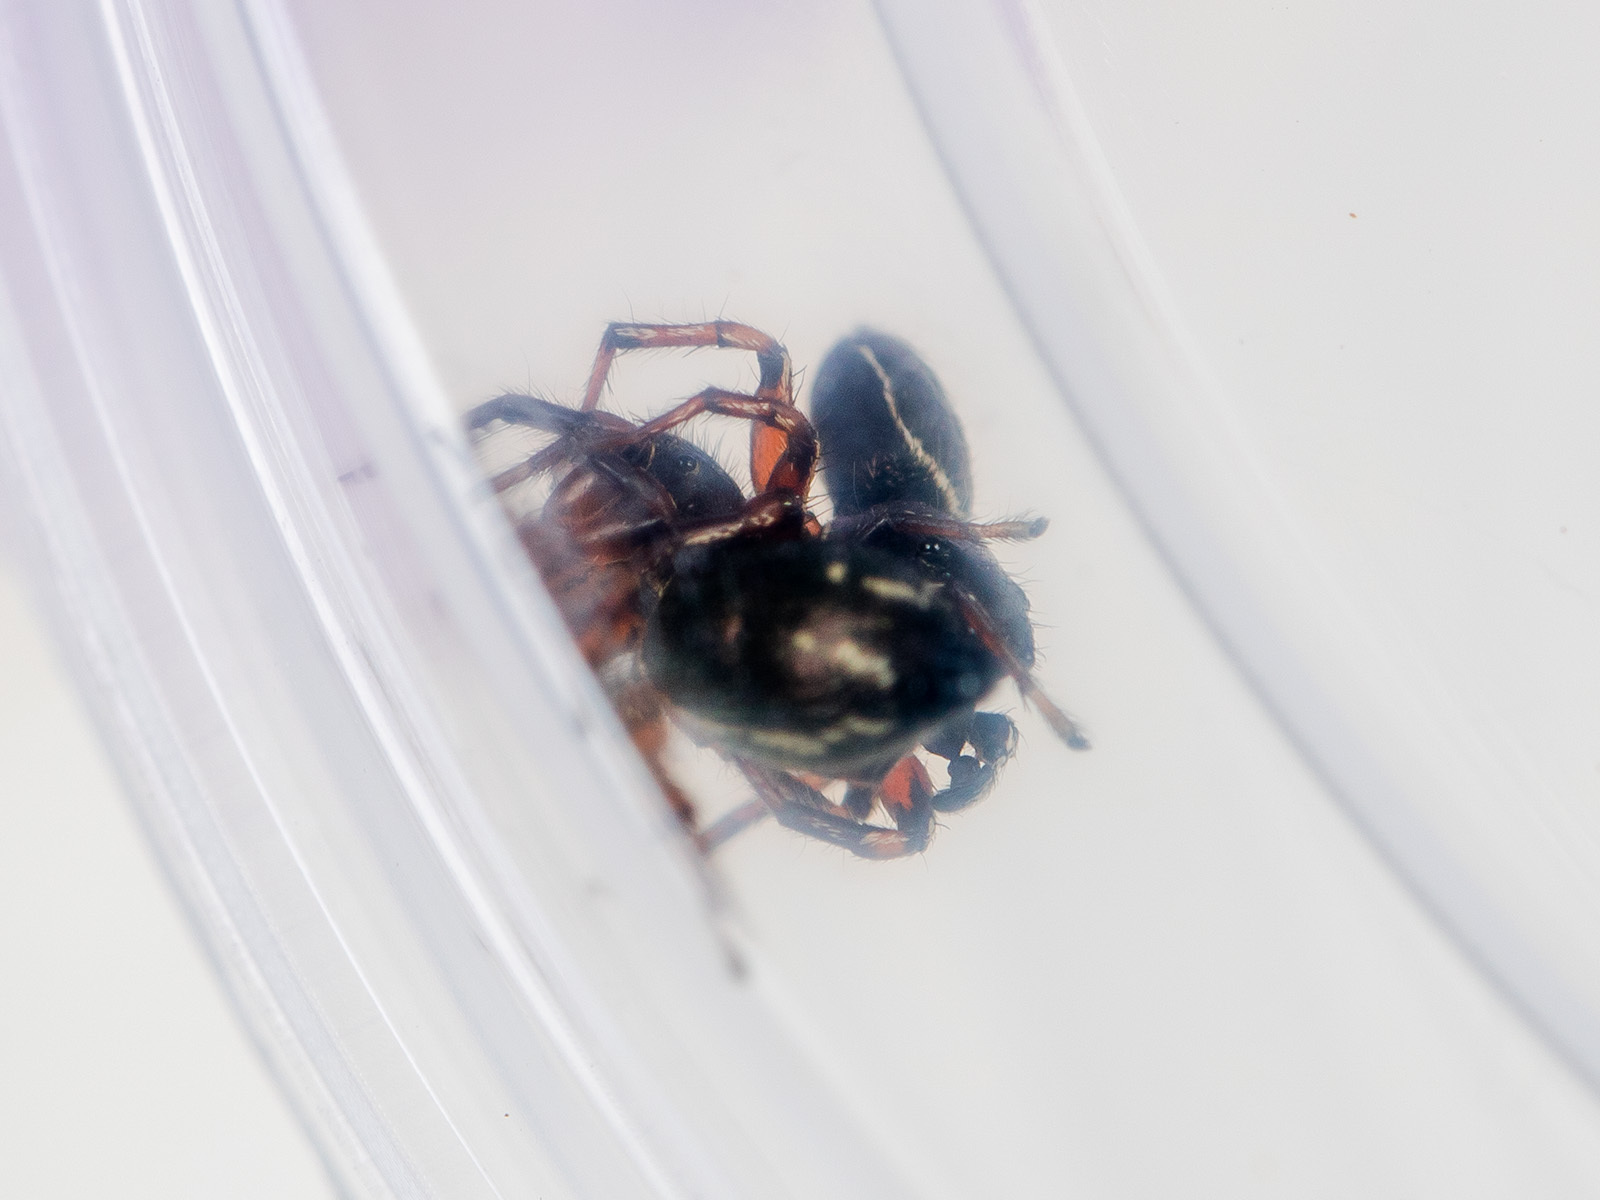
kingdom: Animalia
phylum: Arthropoda
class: Arachnida
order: Araneae
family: Salticidae
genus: Heliophanus
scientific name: Heliophanus wesolowskae
